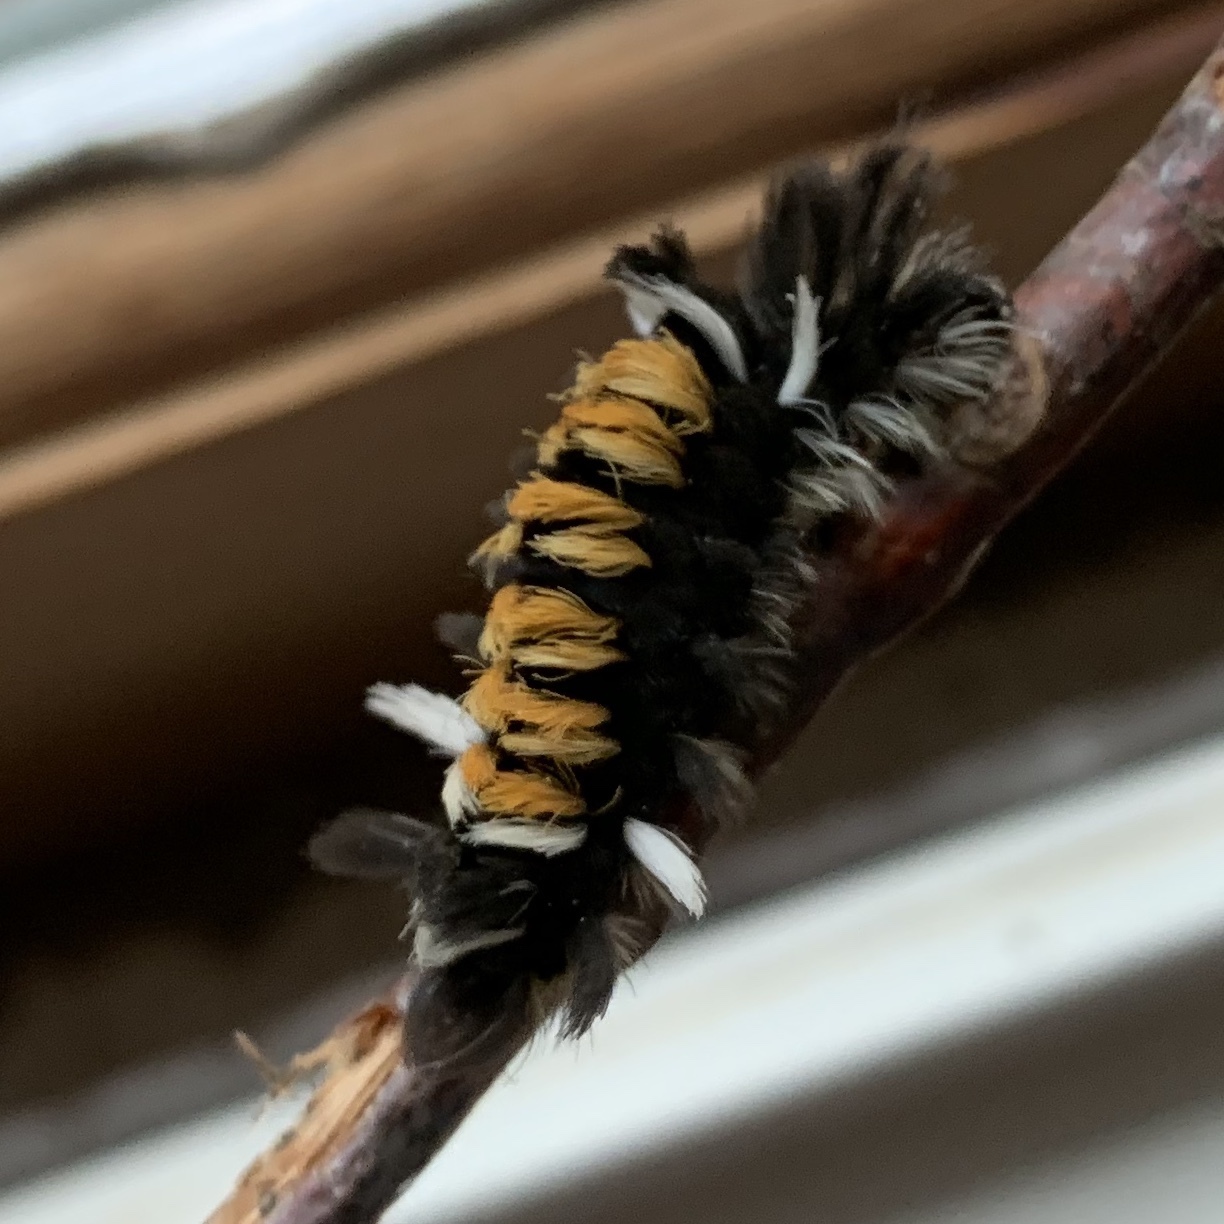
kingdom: Animalia
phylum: Arthropoda
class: Insecta
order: Lepidoptera
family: Erebidae
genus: Euchaetes
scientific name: Euchaetes egle
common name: Milkweed tussock moth
